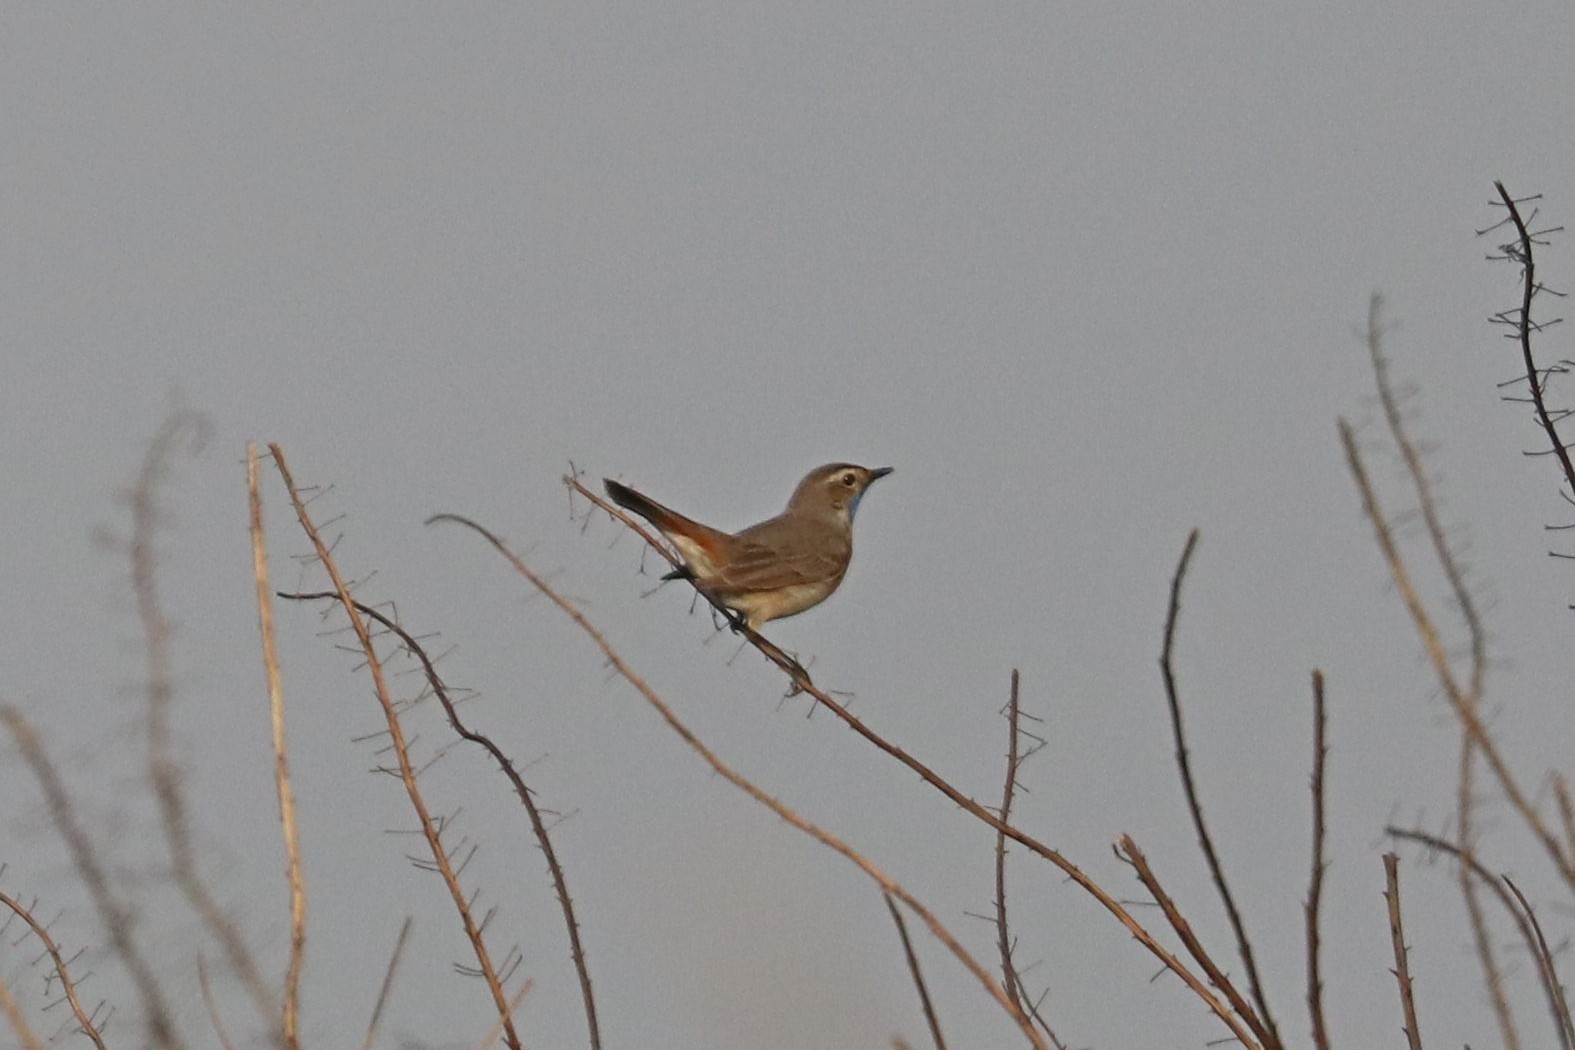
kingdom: Animalia
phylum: Chordata
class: Aves
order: Passeriformes
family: Muscicapidae
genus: Luscinia
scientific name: Luscinia svecica
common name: Bluethroat
